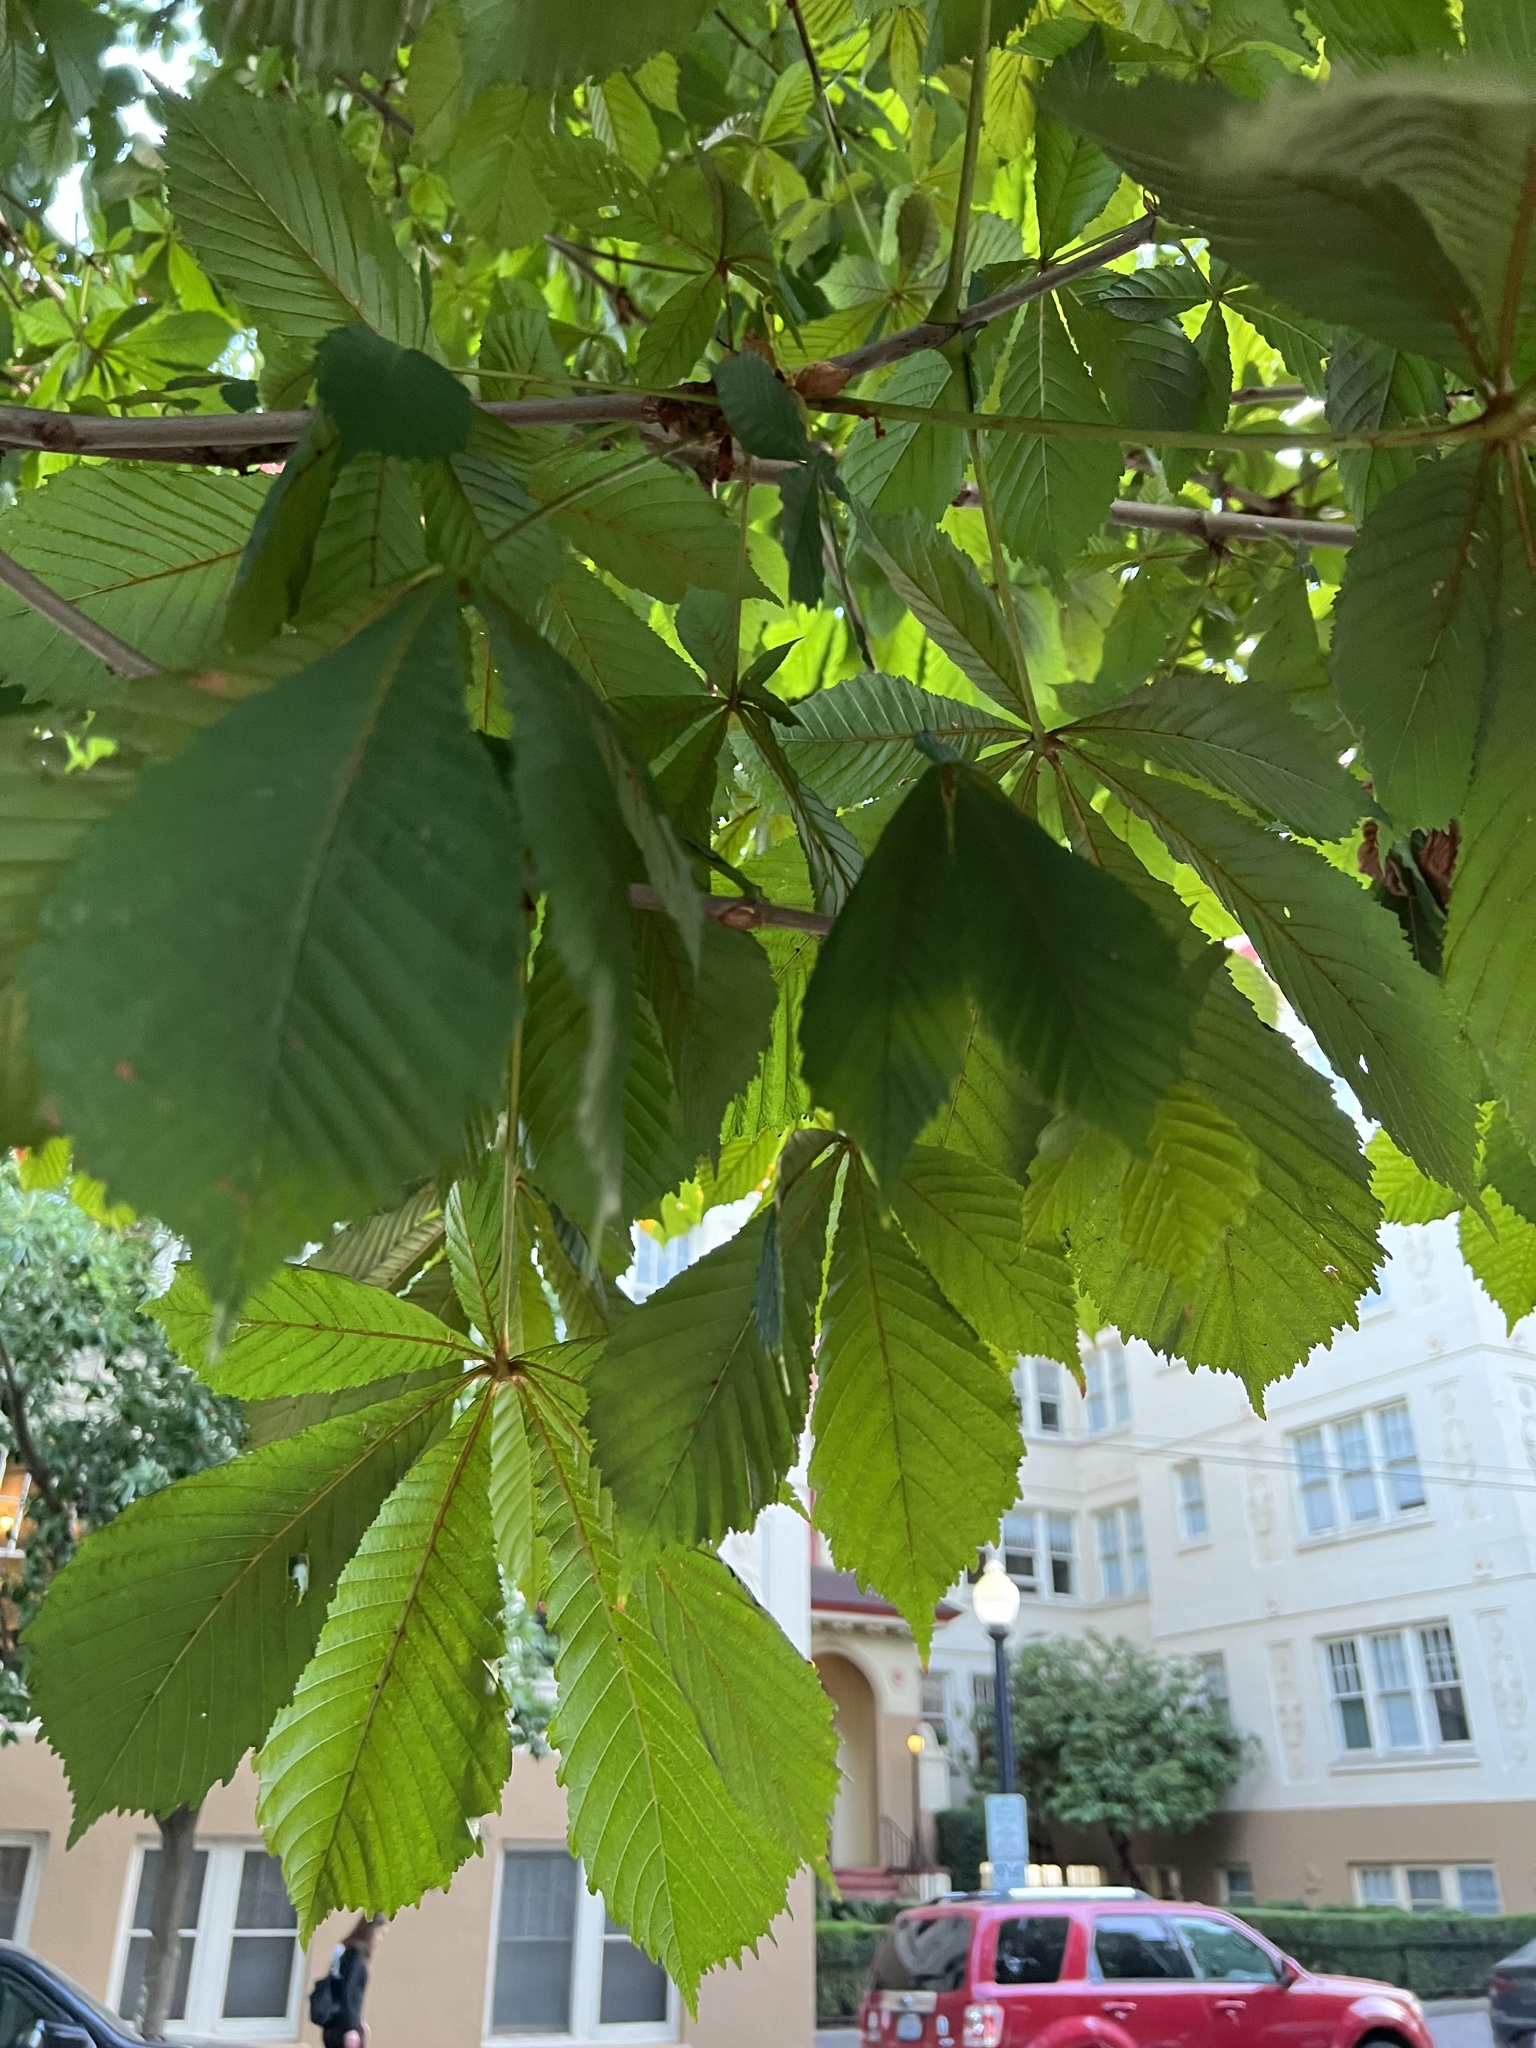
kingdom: Plantae
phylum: Tracheophyta
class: Magnoliopsida
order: Sapindales
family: Sapindaceae
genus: Aesculus
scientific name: Aesculus hippocastanum
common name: Horse-chestnut
